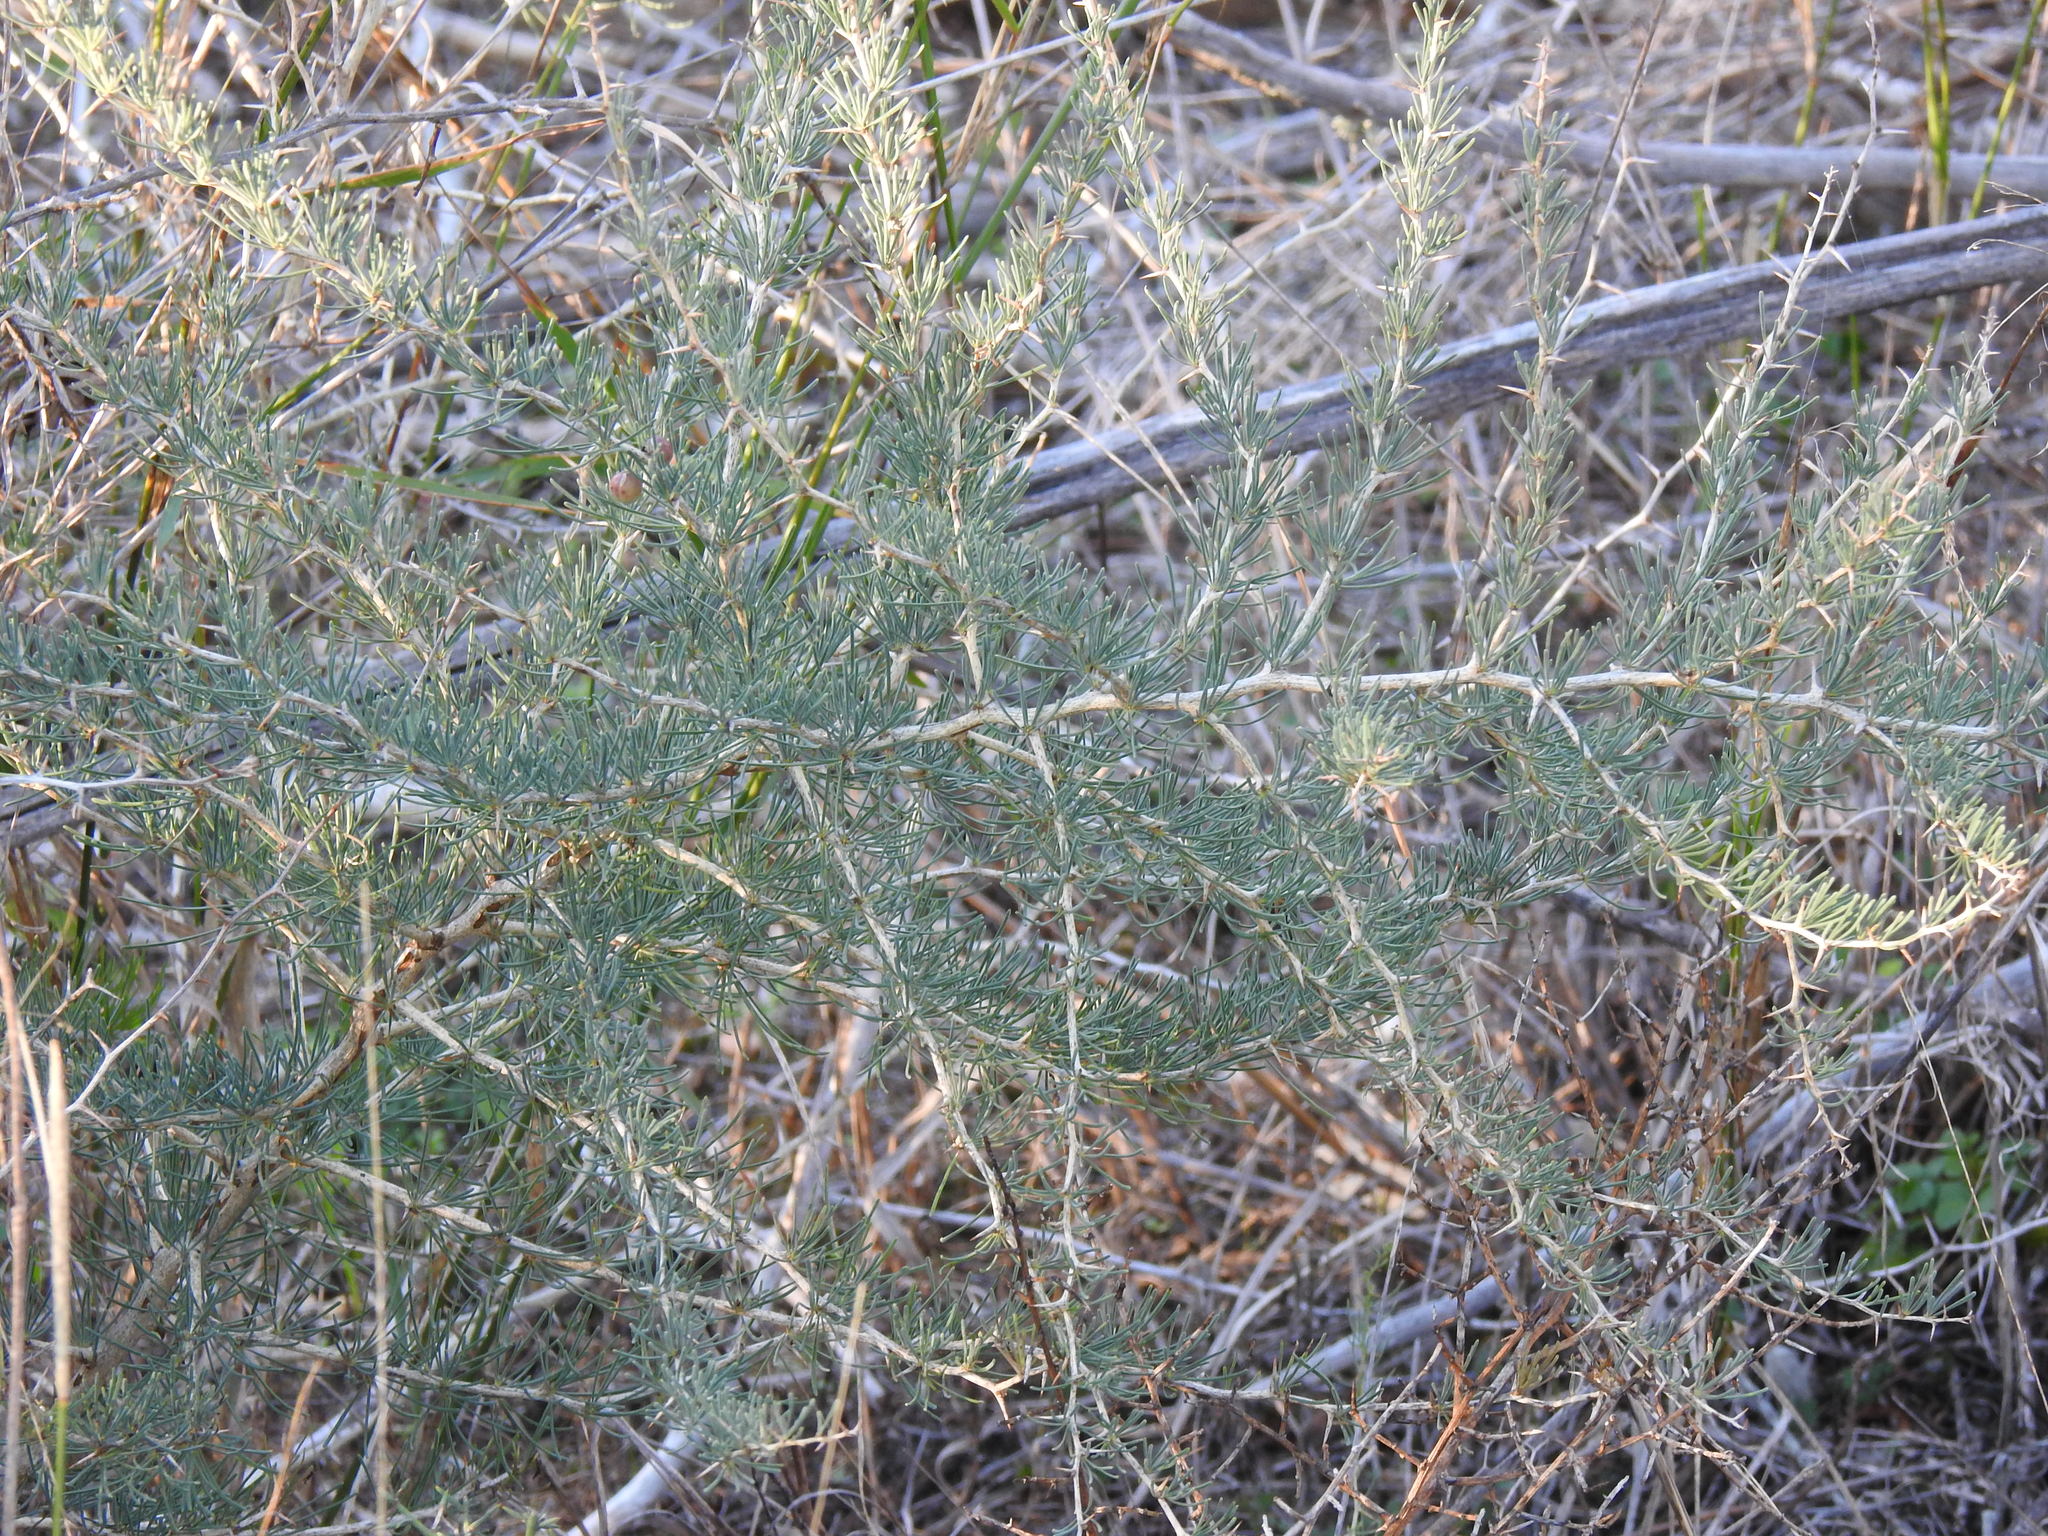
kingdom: Plantae
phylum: Tracheophyta
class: Liliopsida
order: Asparagales
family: Asparagaceae
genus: Asparagus
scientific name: Asparagus albus
